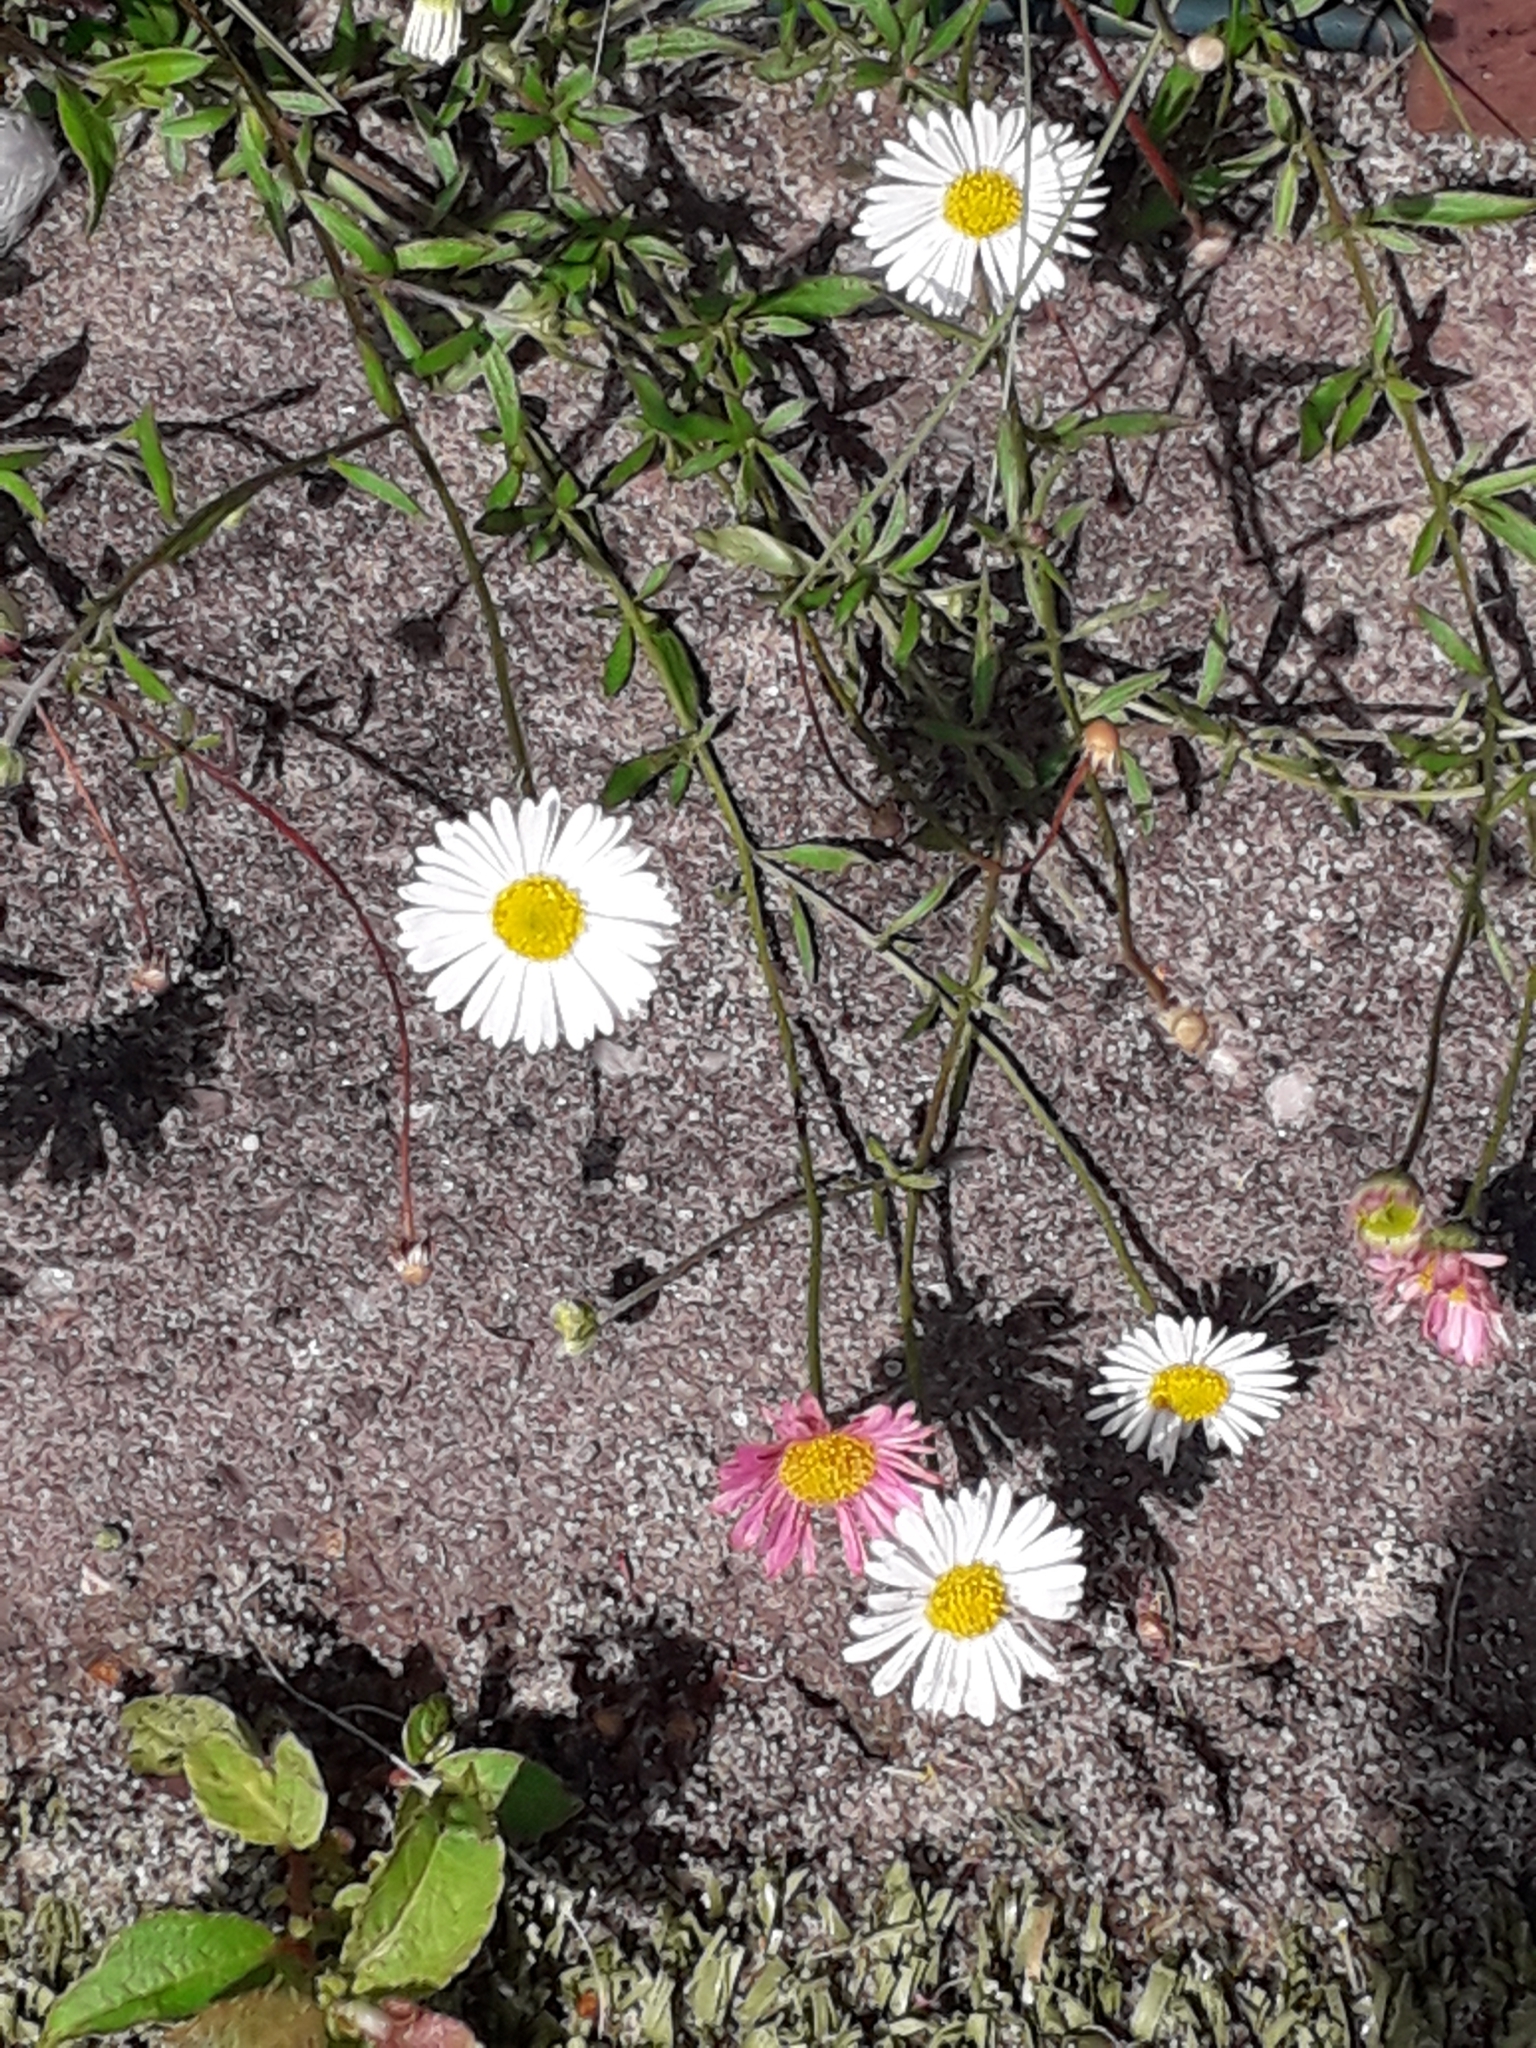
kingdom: Plantae
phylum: Tracheophyta
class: Magnoliopsida
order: Asterales
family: Asteraceae
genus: Erigeron
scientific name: Erigeron karvinskianus
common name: Mexican fleabane
